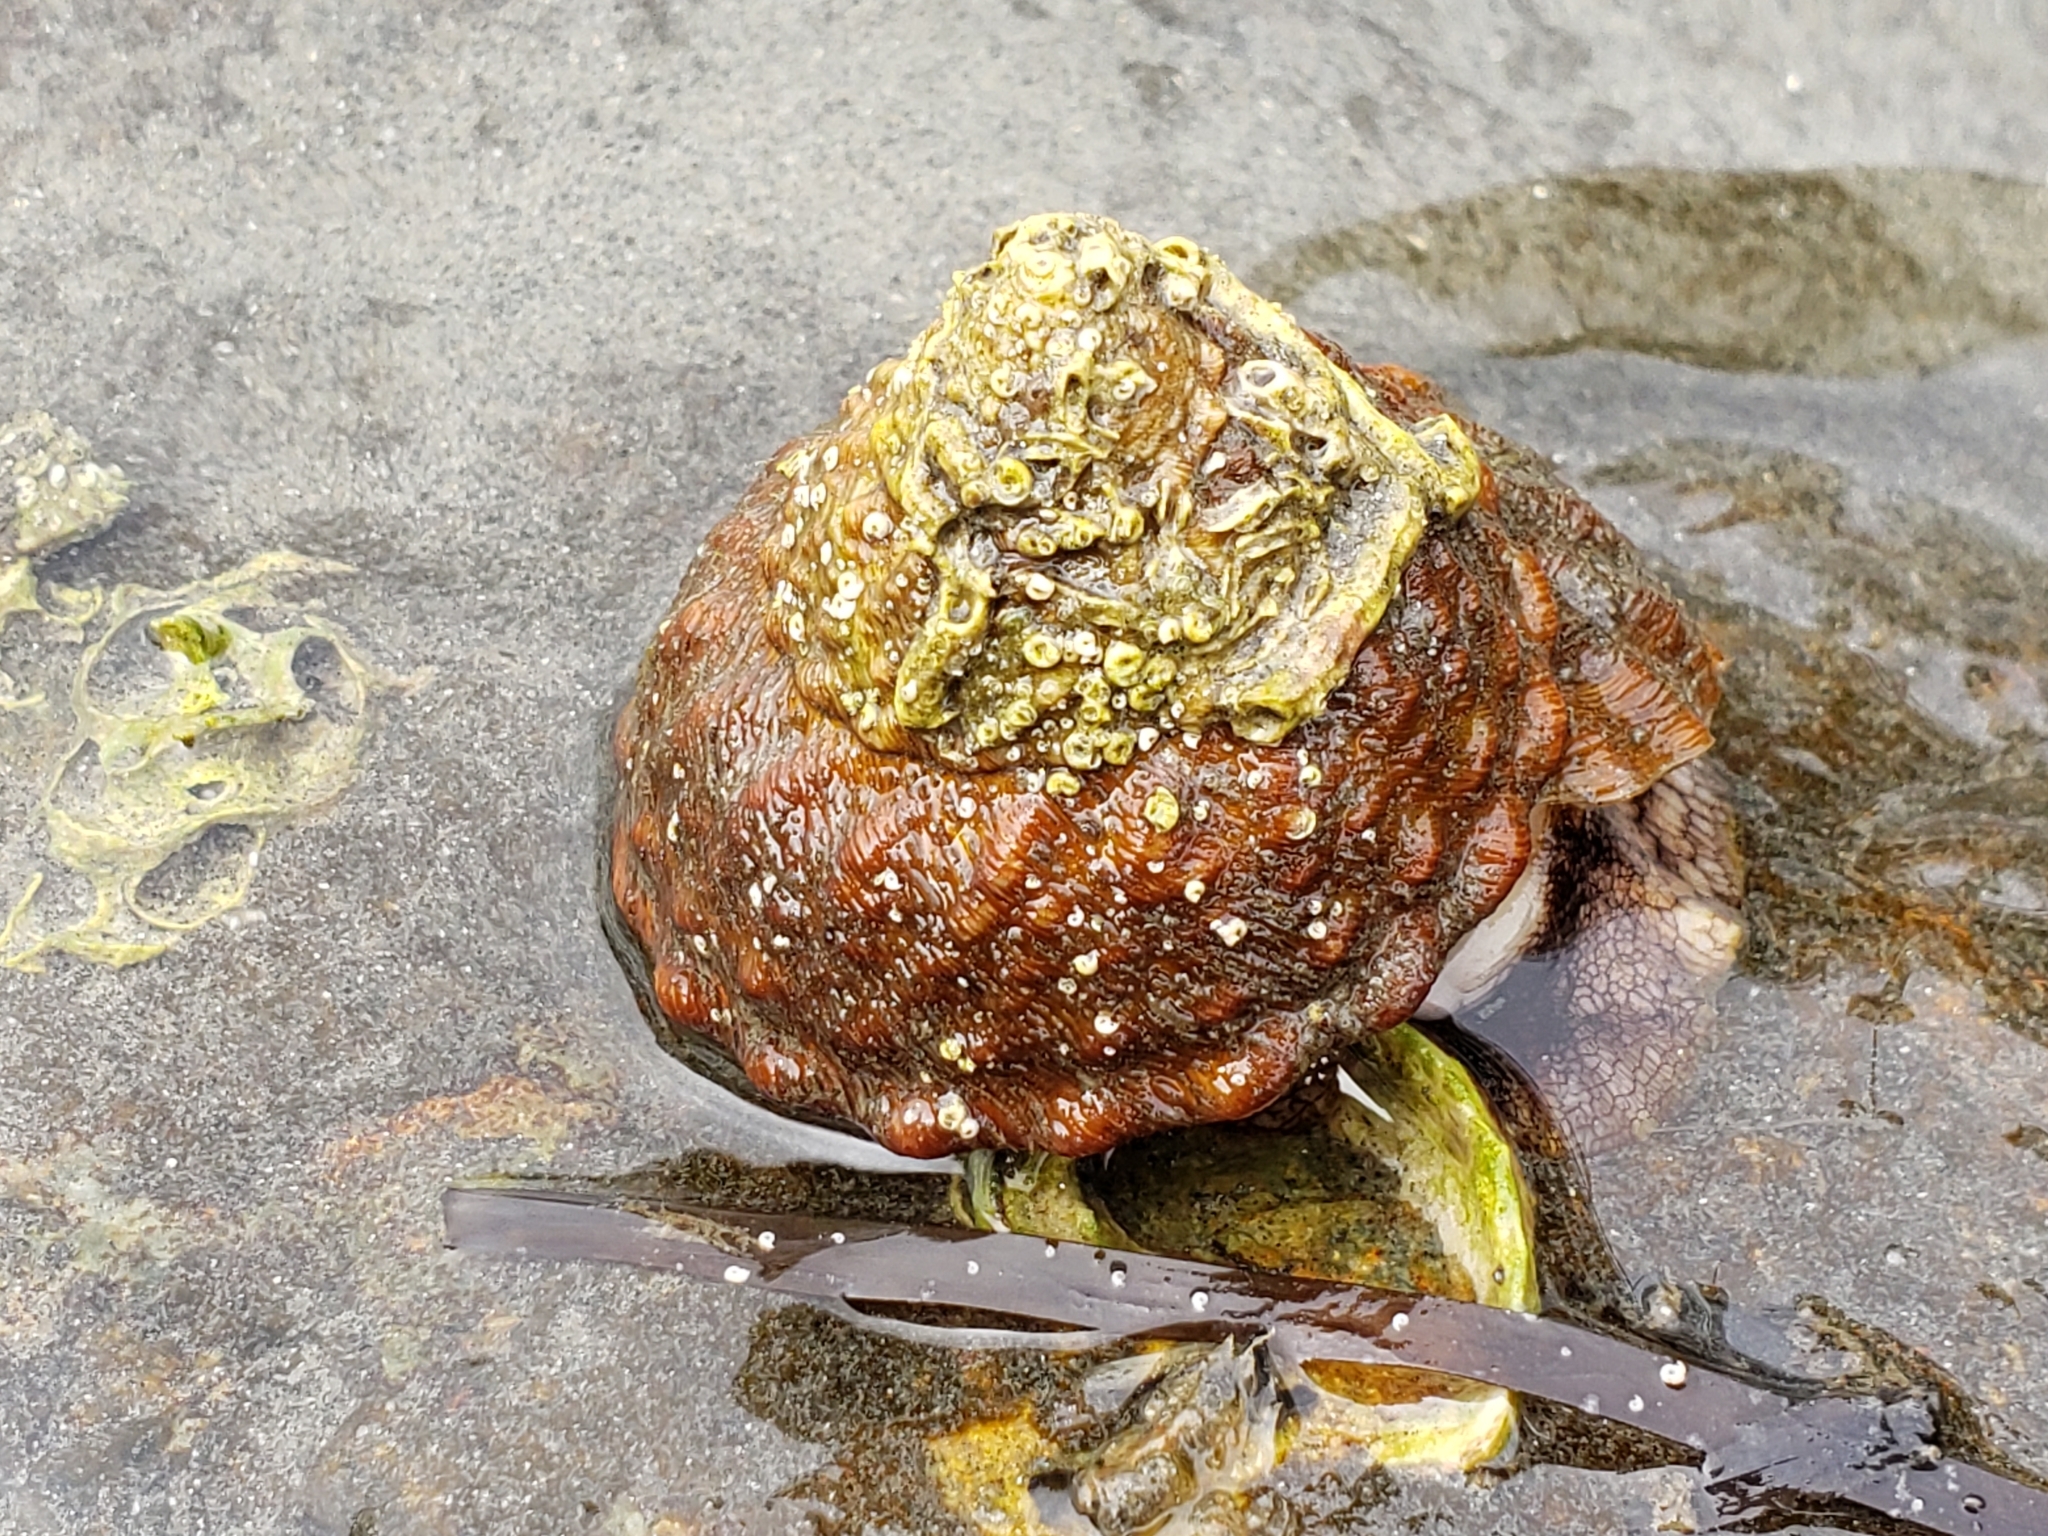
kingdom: Animalia
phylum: Mollusca
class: Gastropoda
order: Trochida
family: Turbinidae
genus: Megastraea
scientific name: Megastraea undosa
